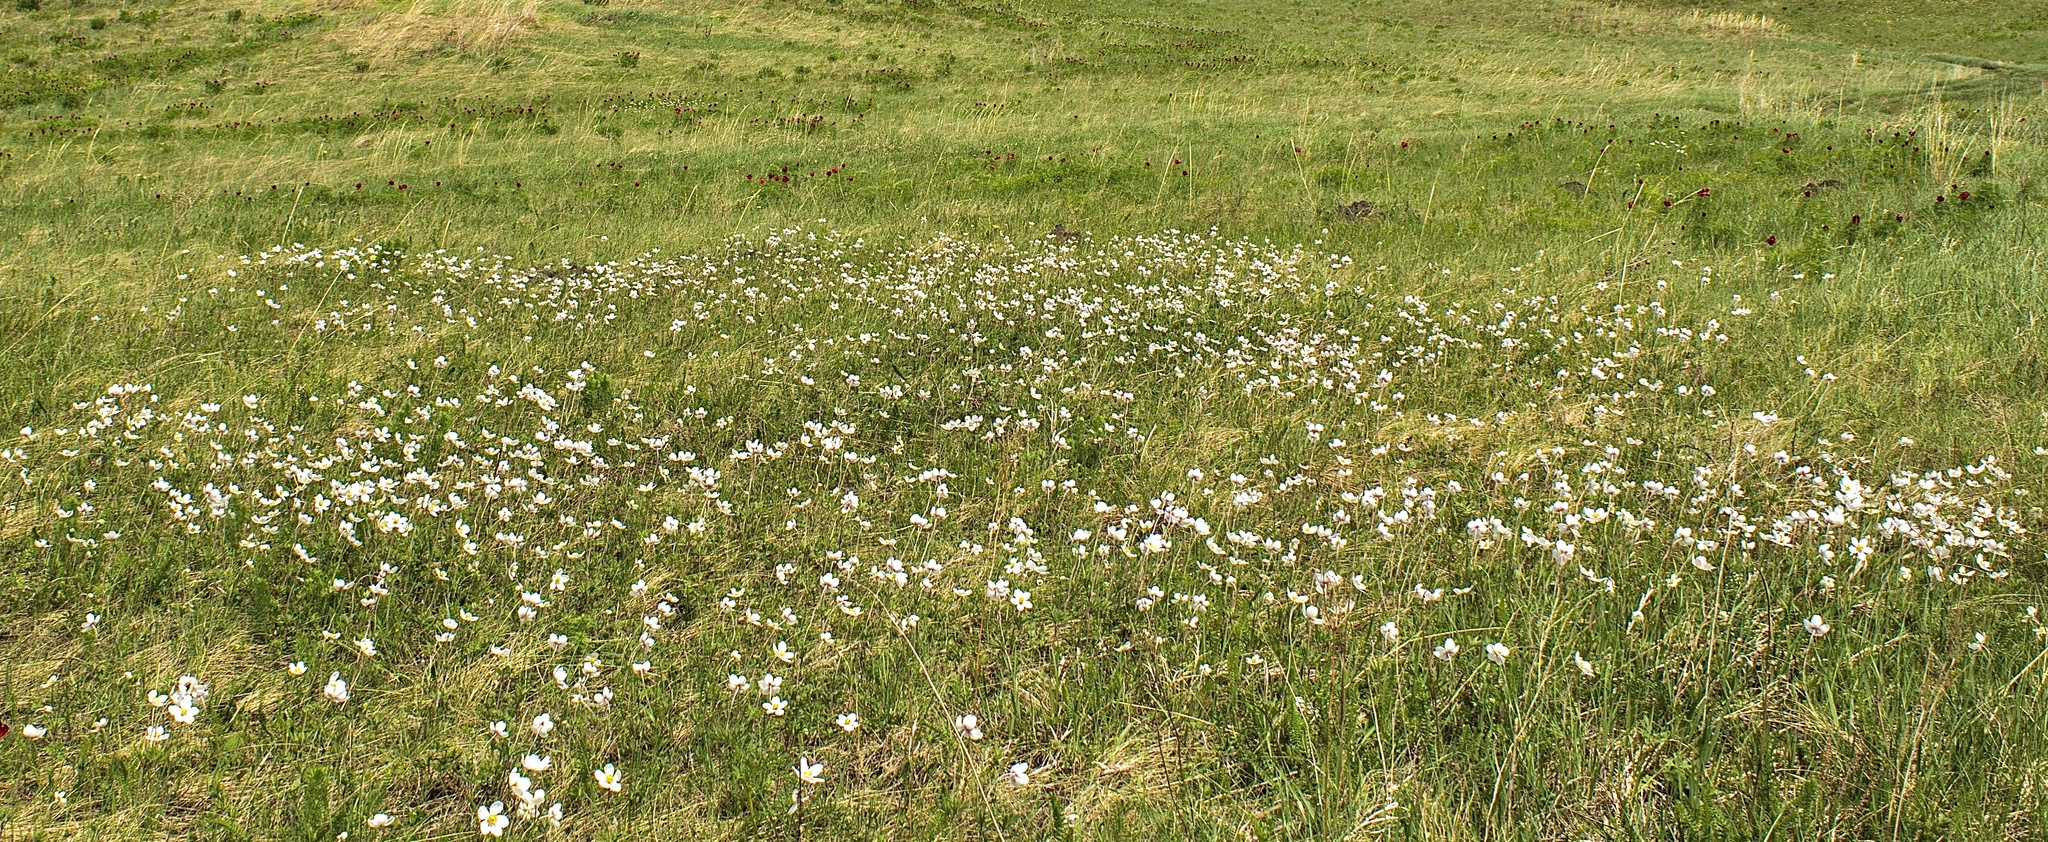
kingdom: Plantae
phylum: Tracheophyta
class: Magnoliopsida
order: Ranunculales
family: Ranunculaceae
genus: Anemone
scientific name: Anemone sylvestris
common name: Snowdrop anemone
